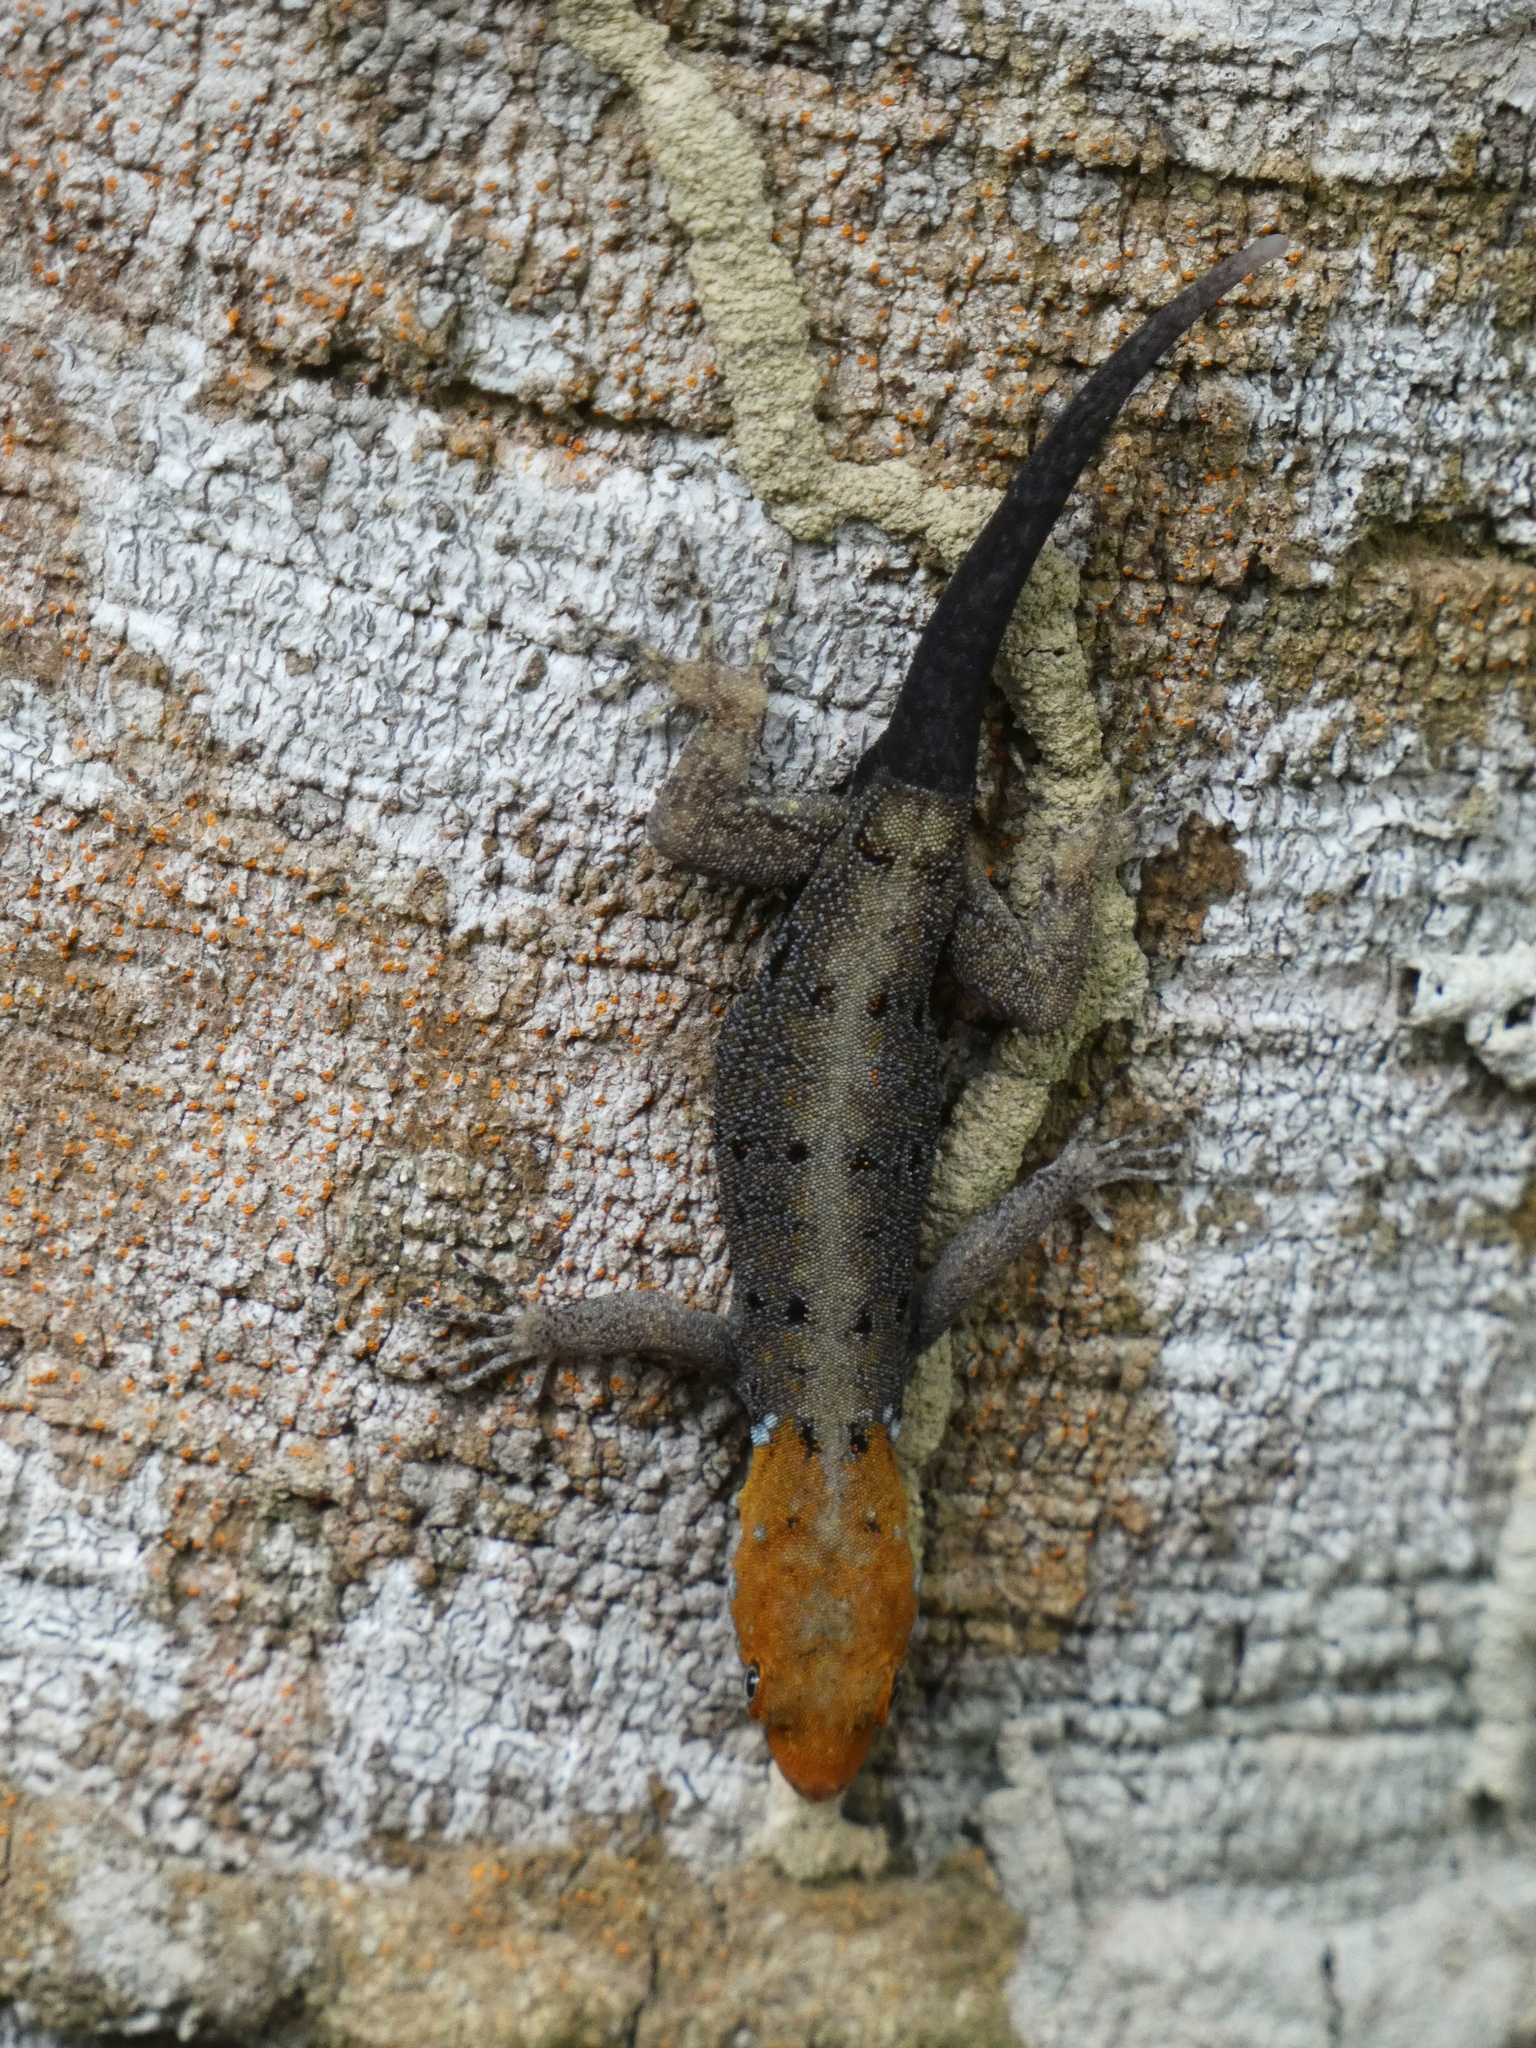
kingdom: Animalia
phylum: Chordata
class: Squamata
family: Sphaerodactylidae
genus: Gonatodes
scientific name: Gonatodes albogularis
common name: Yellow-headed gecko
